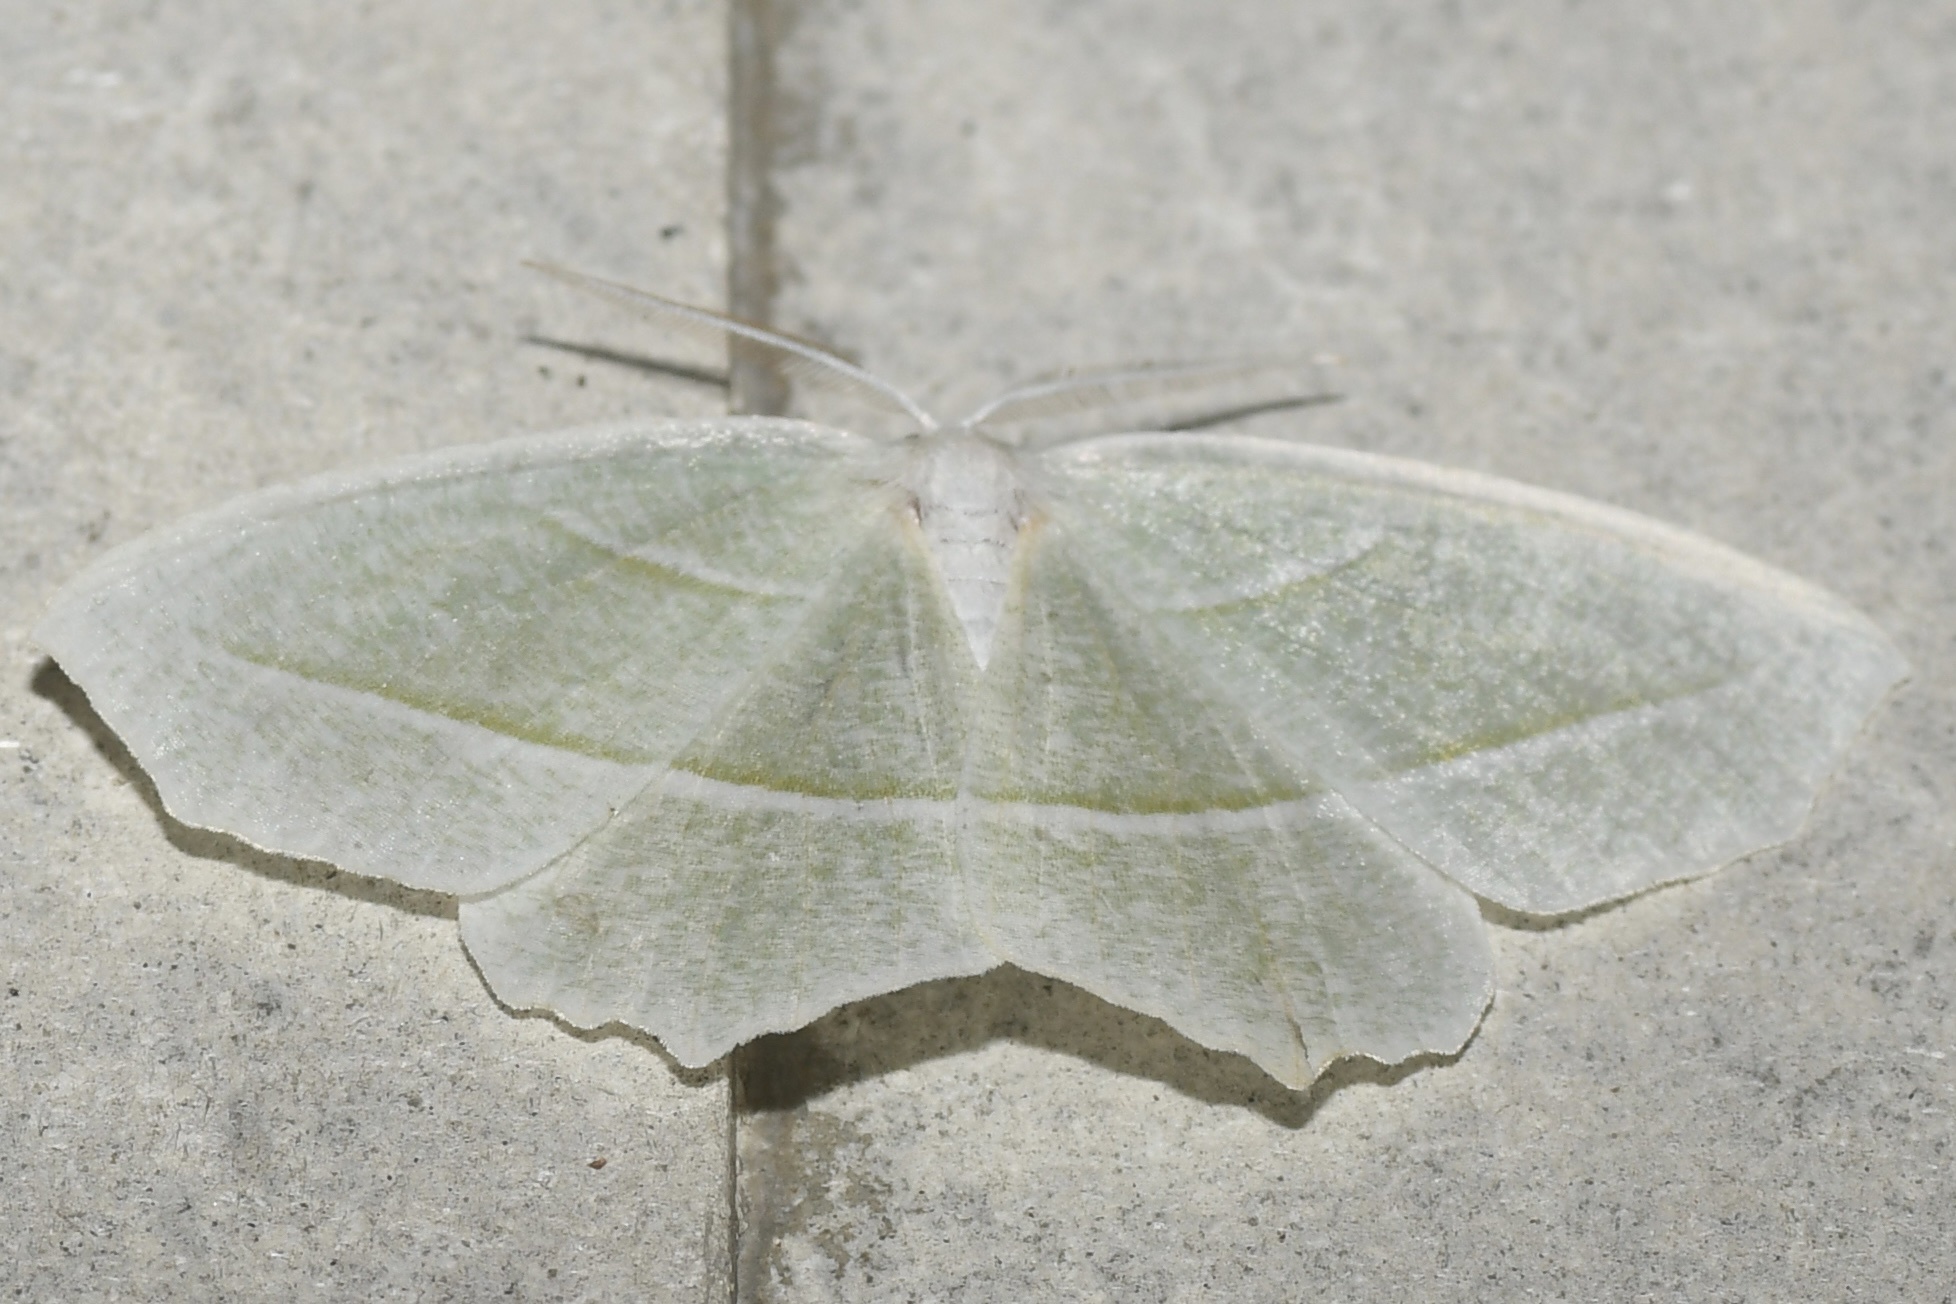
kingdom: Animalia
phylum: Arthropoda
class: Insecta
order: Lepidoptera
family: Geometridae
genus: Campaea
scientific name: Campaea perlata
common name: Fringed looper
